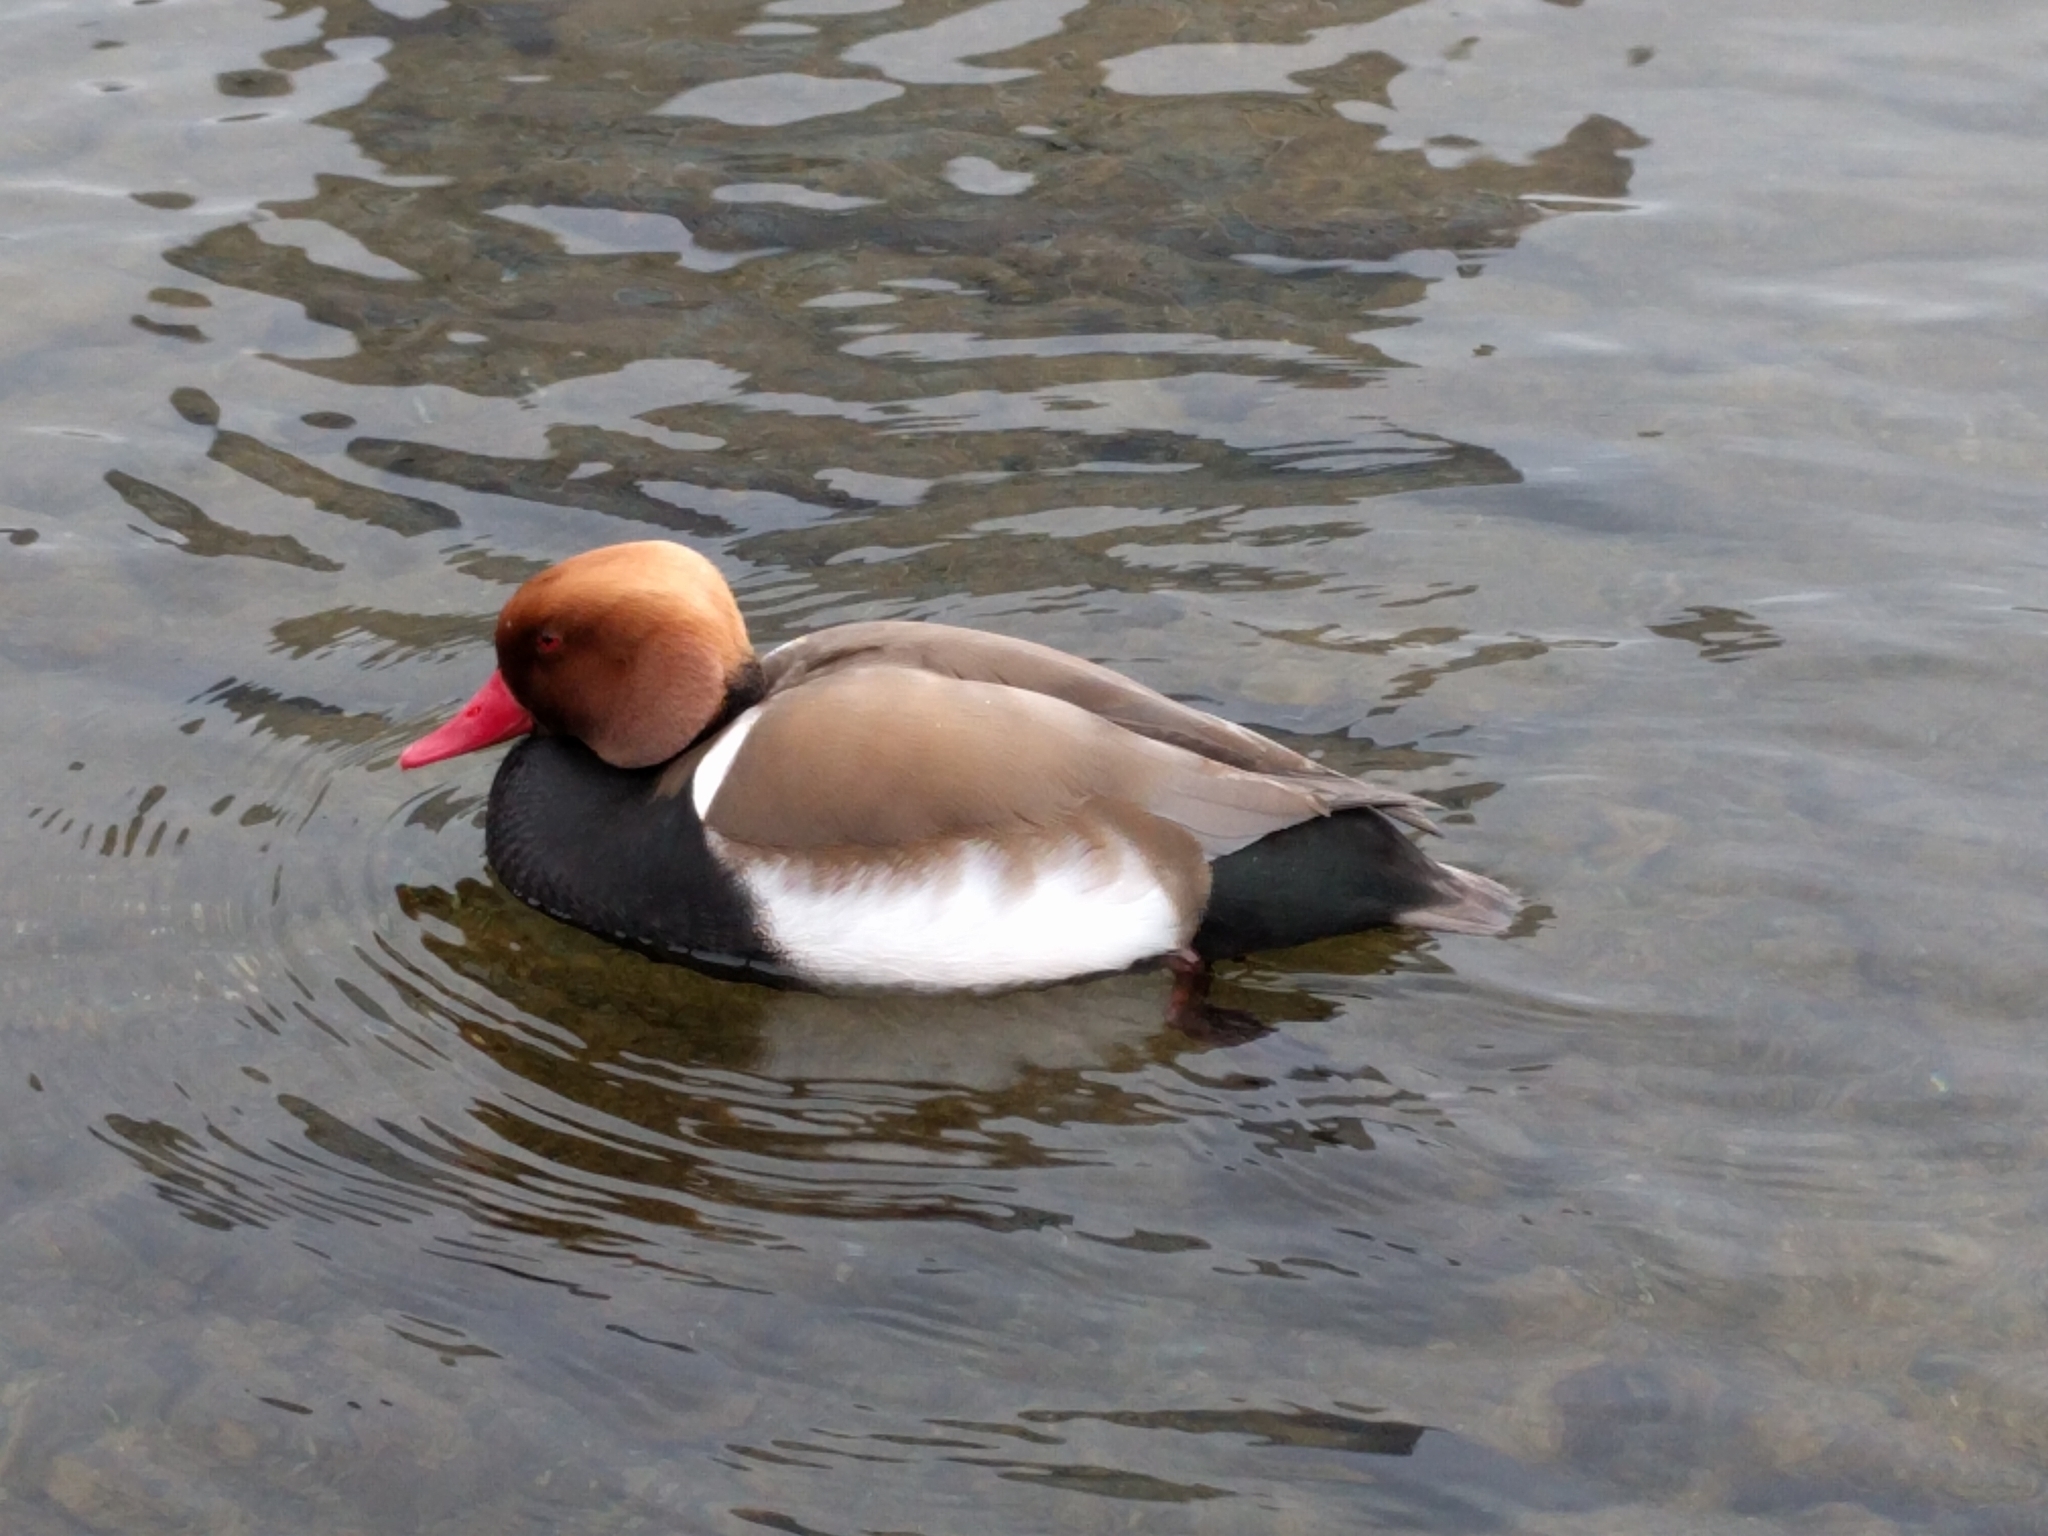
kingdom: Animalia
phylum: Chordata
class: Aves
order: Anseriformes
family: Anatidae
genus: Netta
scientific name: Netta rufina
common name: Red-crested pochard
